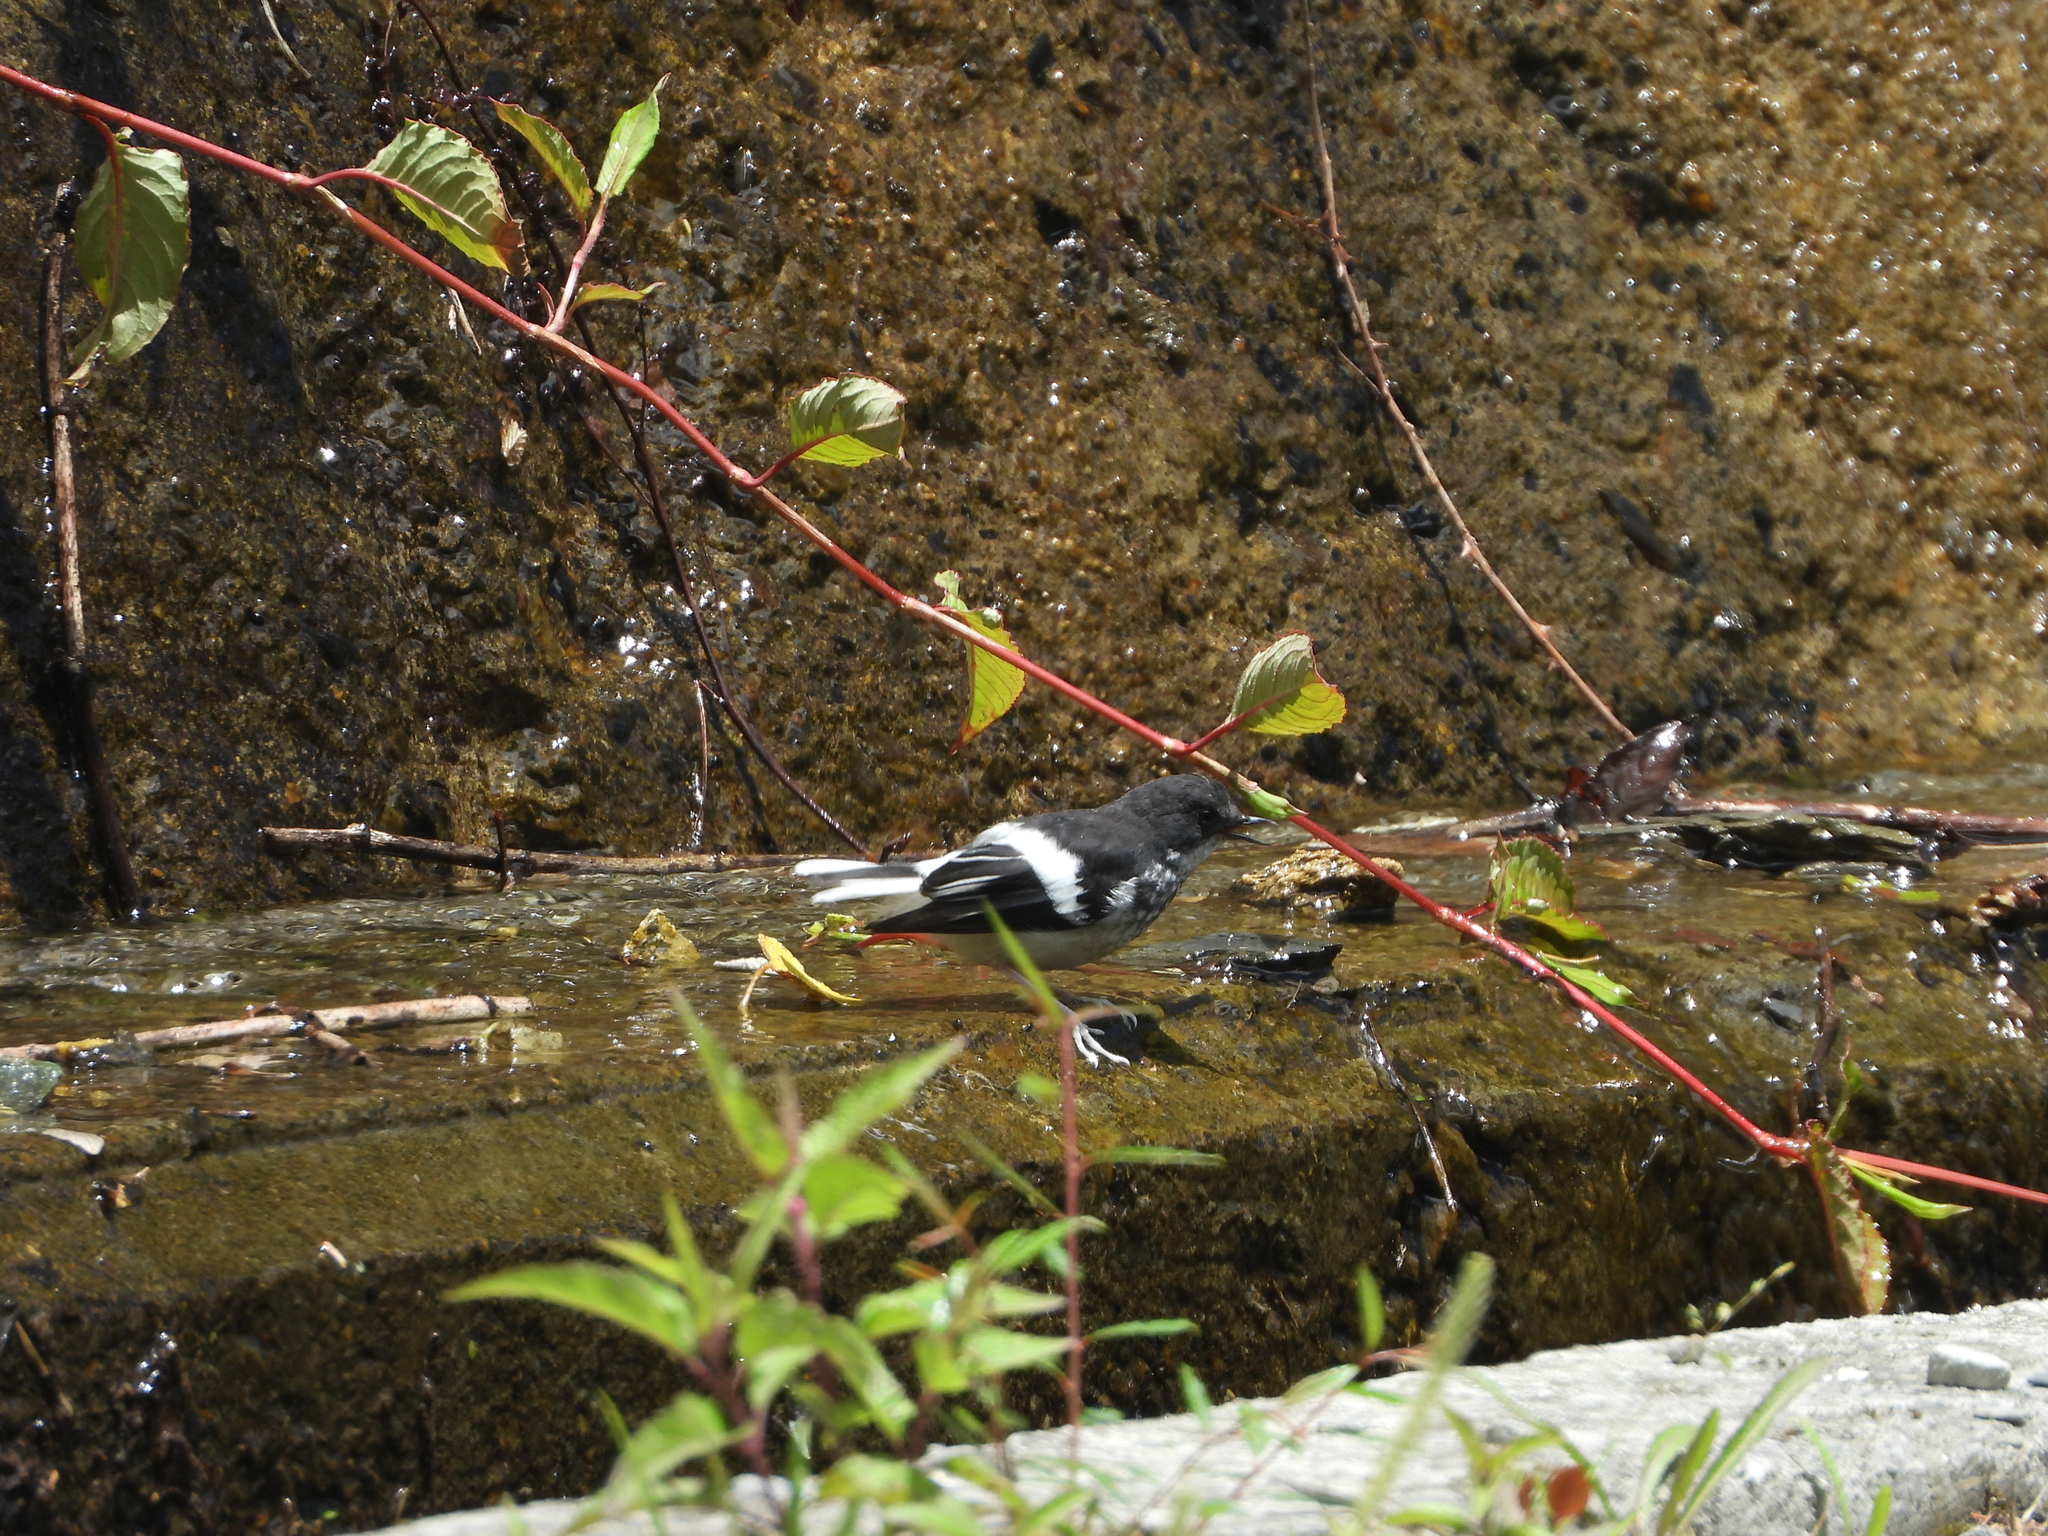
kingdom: Animalia
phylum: Chordata
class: Aves
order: Passeriformes
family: Muscicapidae
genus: Enicurus
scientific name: Enicurus scouleri
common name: Little forktail
